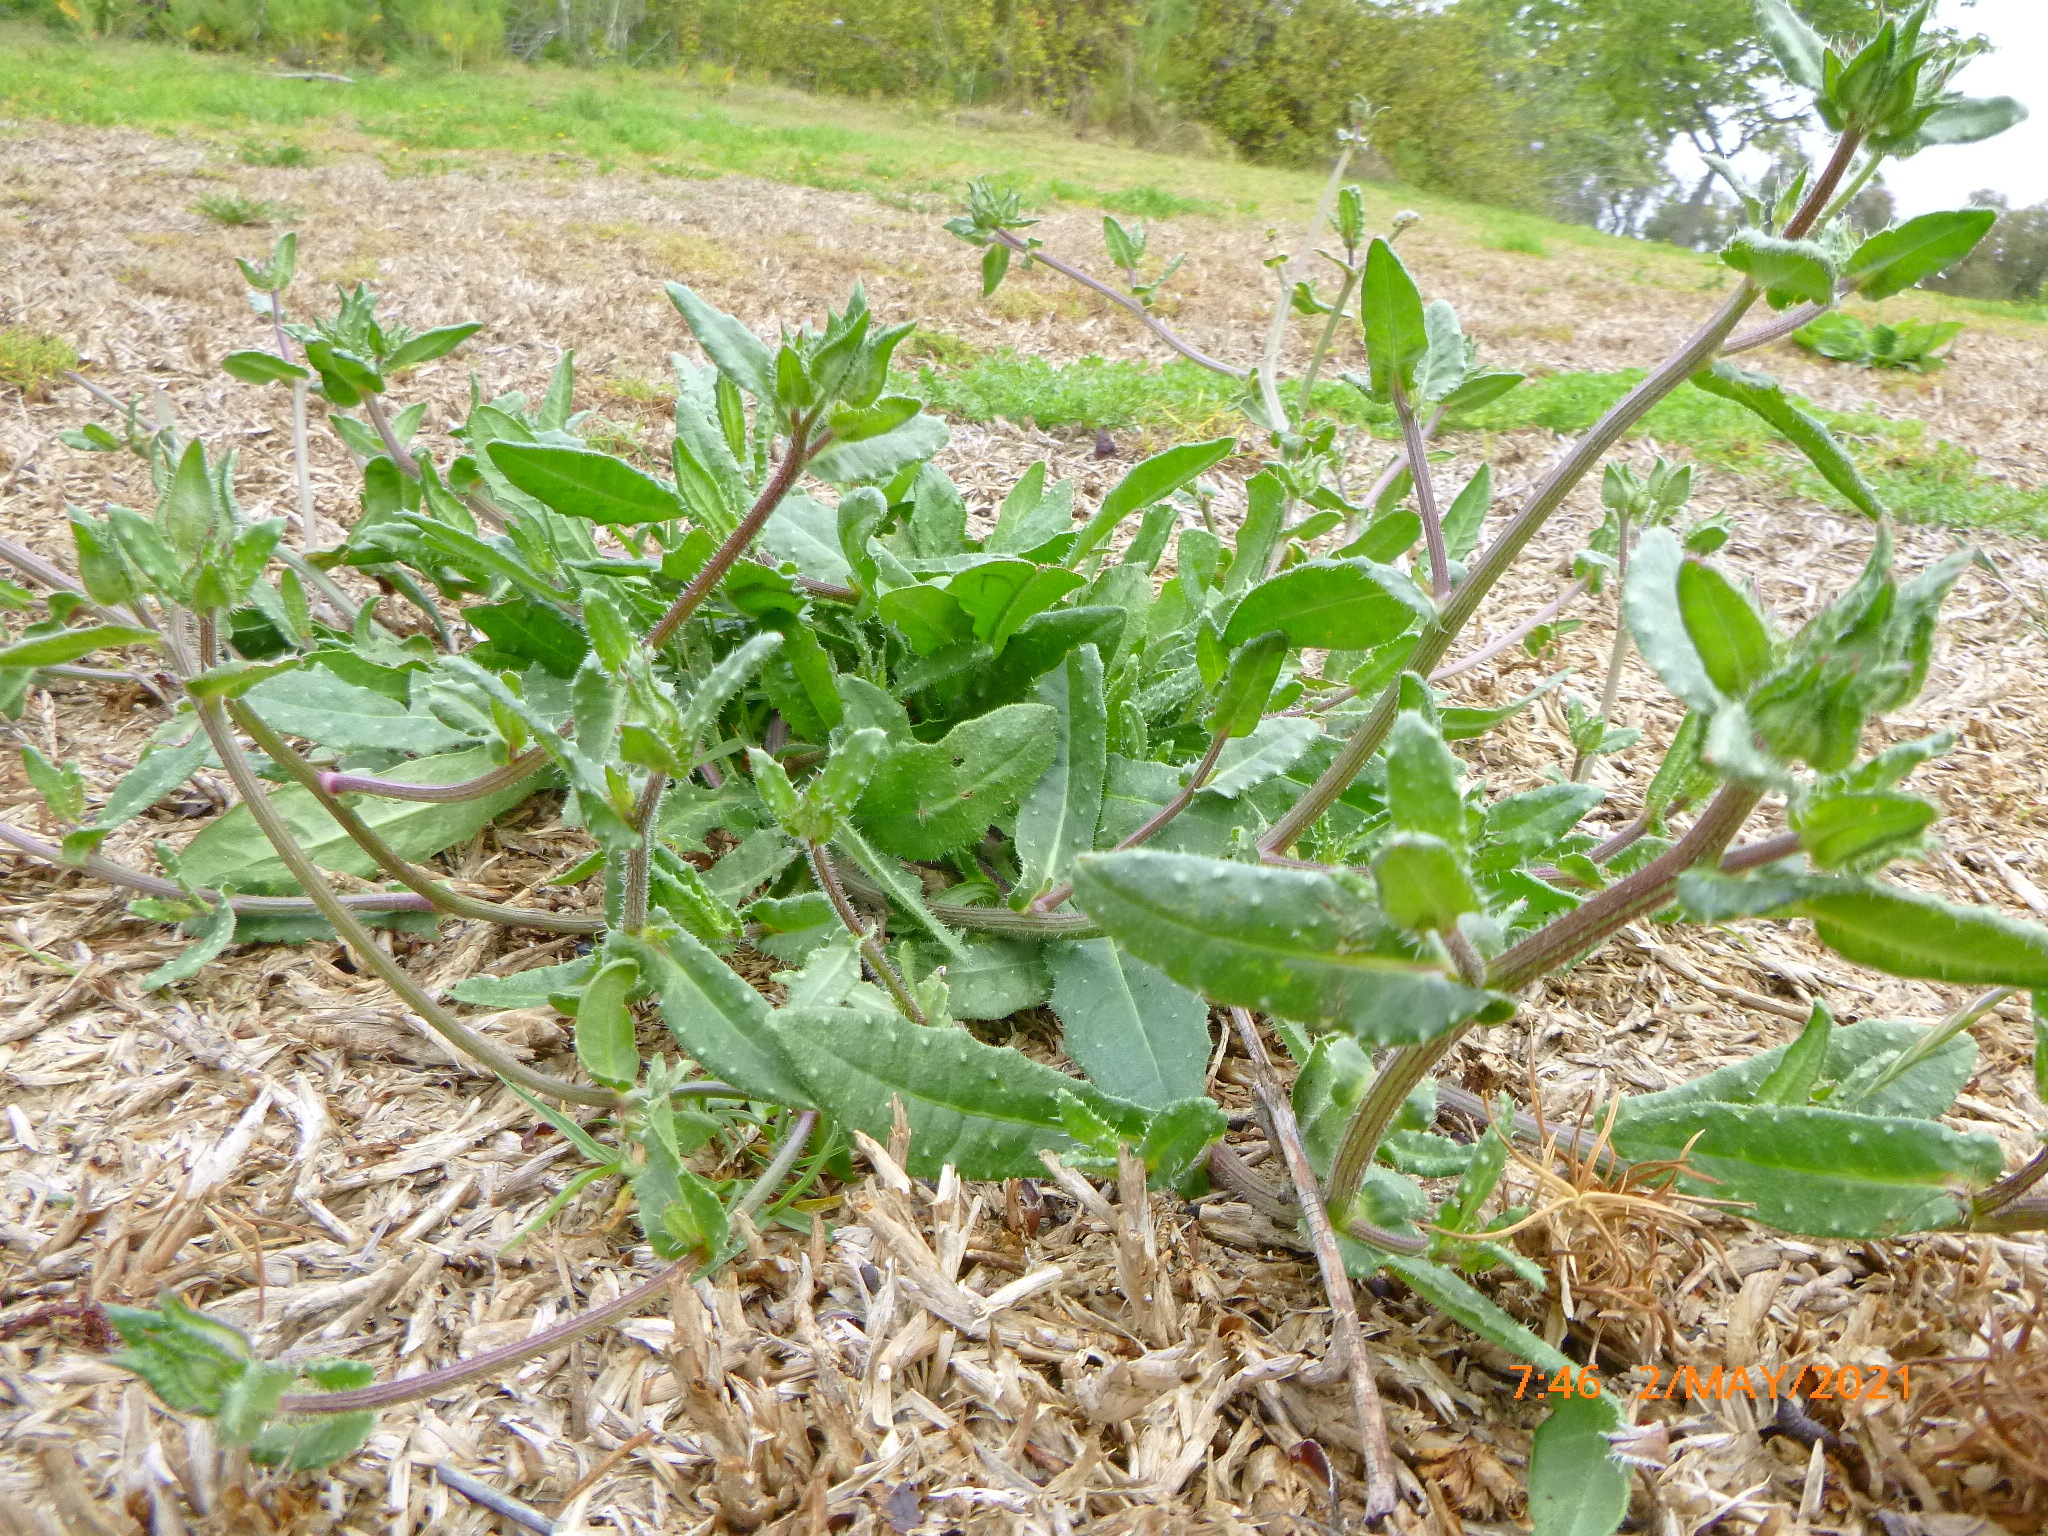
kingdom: Plantae
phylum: Tracheophyta
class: Magnoliopsida
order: Asterales
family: Asteraceae
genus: Helminthotheca
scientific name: Helminthotheca echioides
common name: Ox-tongue
